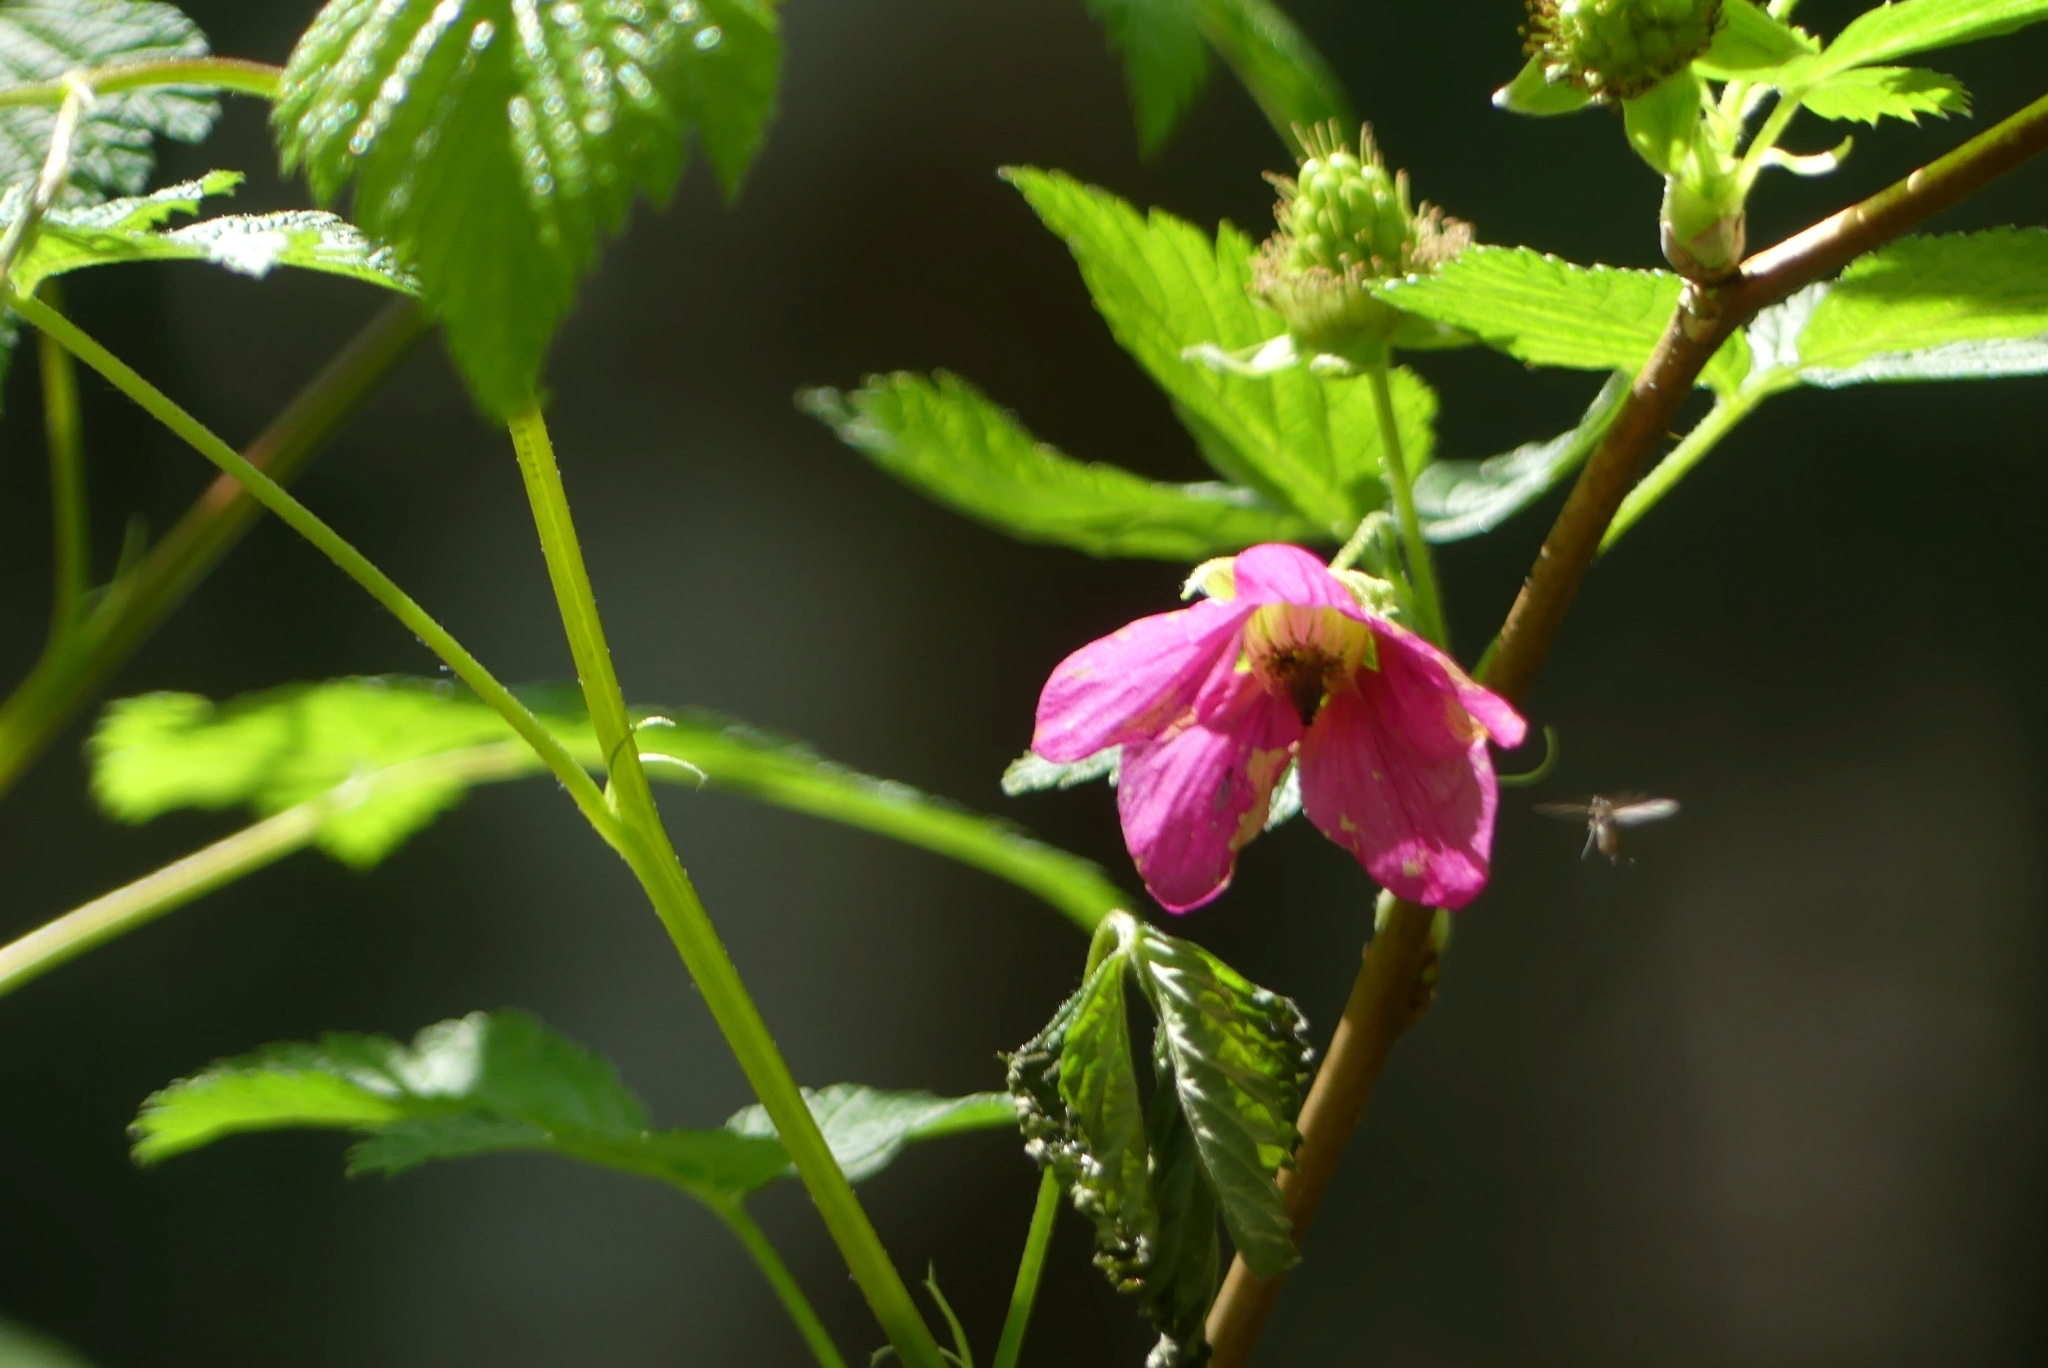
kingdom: Plantae
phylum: Tracheophyta
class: Magnoliopsida
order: Rosales
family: Rosaceae
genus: Rubus
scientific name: Rubus spectabilis
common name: Salmonberry
